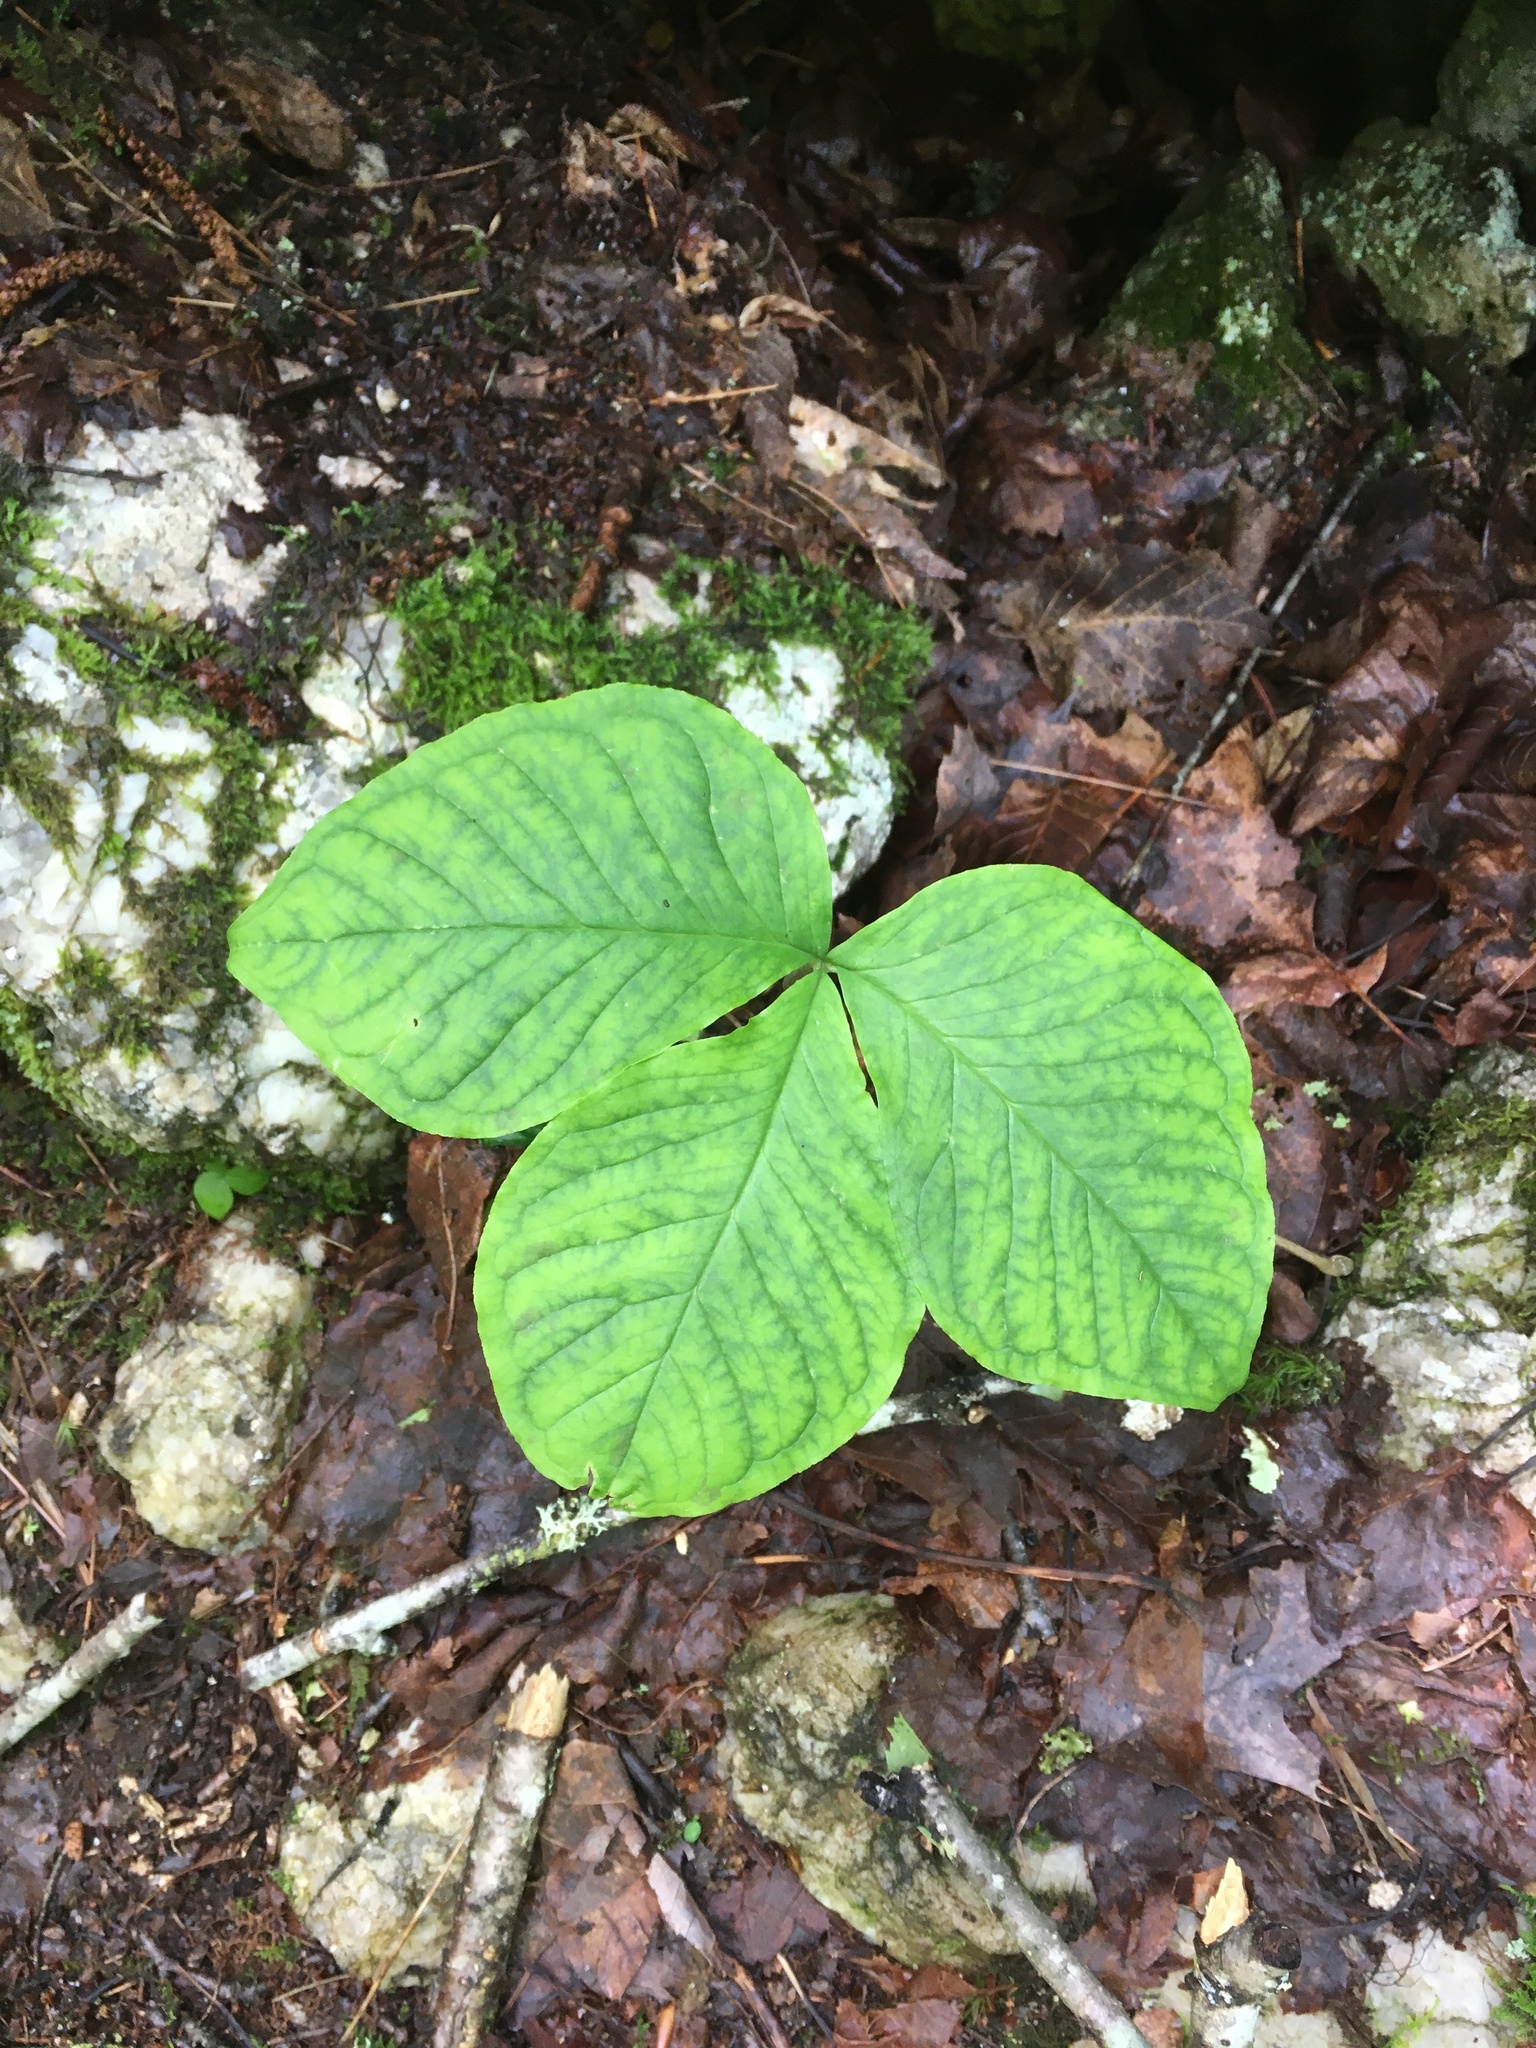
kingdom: Plantae
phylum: Tracheophyta
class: Liliopsida
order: Alismatales
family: Araceae
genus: Arisaema
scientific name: Arisaema triphyllum
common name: Jack-in-the-pulpit
